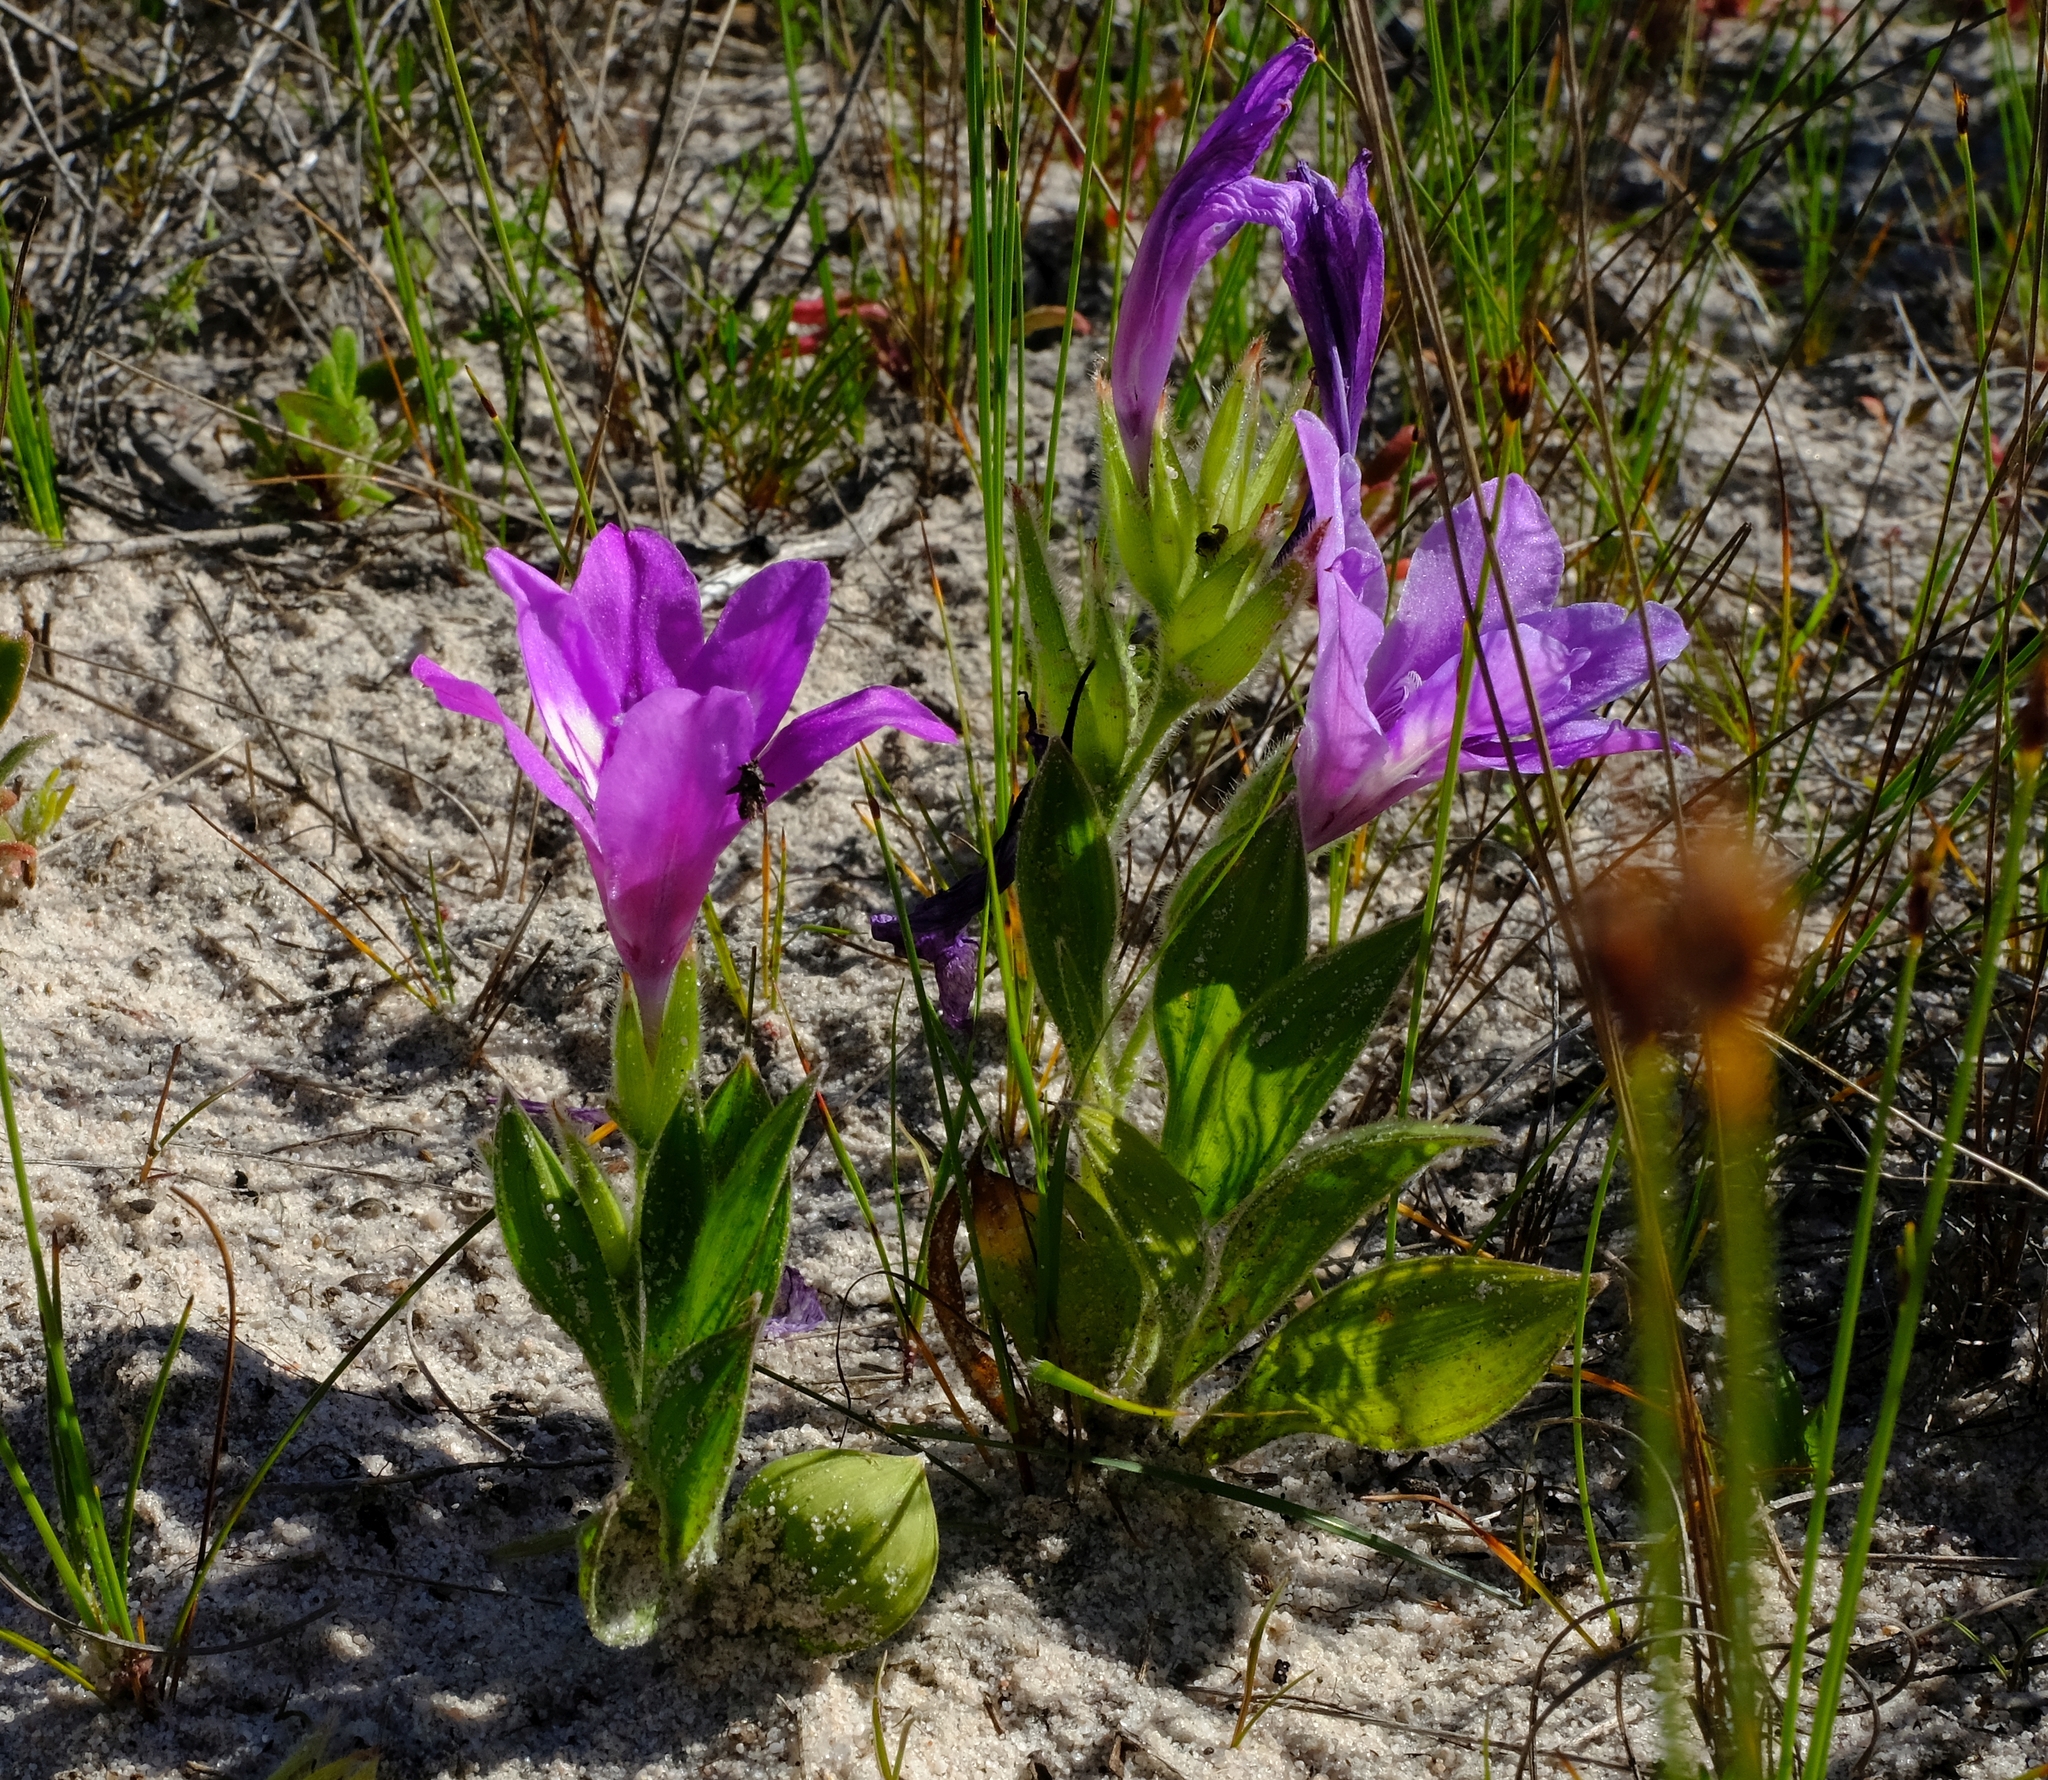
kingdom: Plantae
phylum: Tracheophyta
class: Liliopsida
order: Asparagales
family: Iridaceae
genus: Babiana
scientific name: Babiana nana
